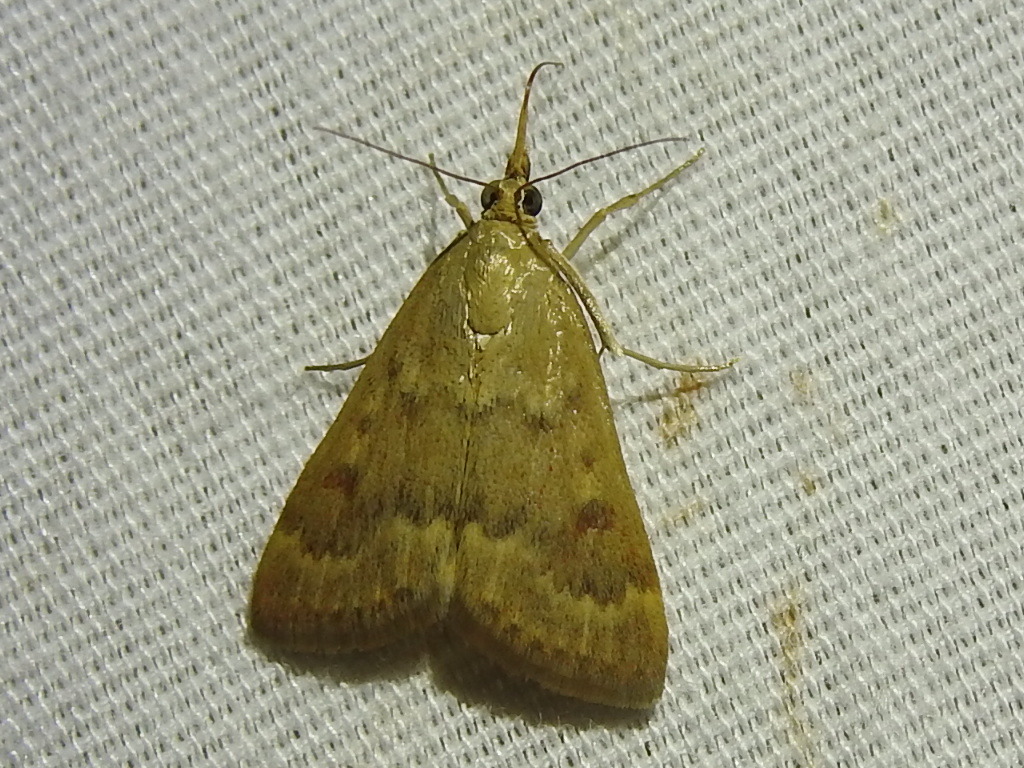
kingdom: Animalia
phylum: Arthropoda
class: Insecta
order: Lepidoptera
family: Crambidae
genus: Achyra
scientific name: Achyra rantalis
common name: Garden webworm
